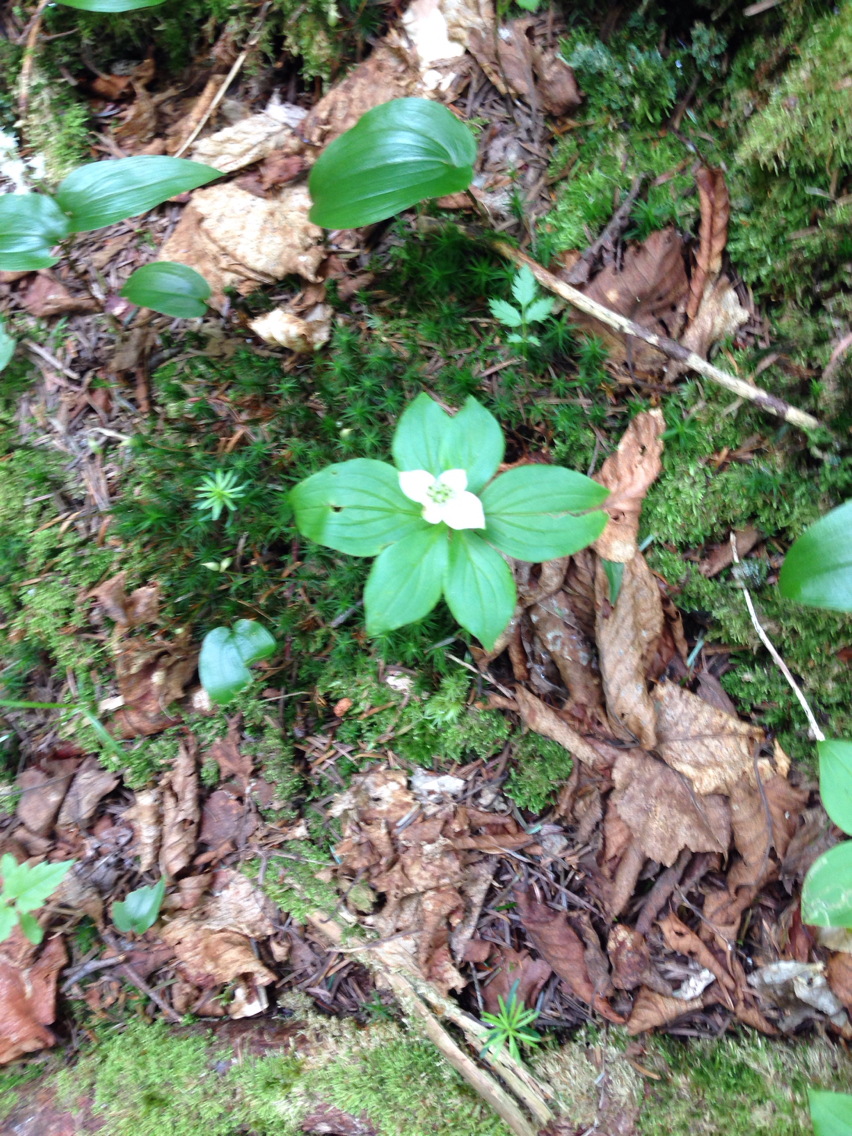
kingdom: Plantae
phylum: Tracheophyta
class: Magnoliopsida
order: Cornales
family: Cornaceae
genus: Cornus
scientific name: Cornus canadensis
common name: Creeping dogwood
